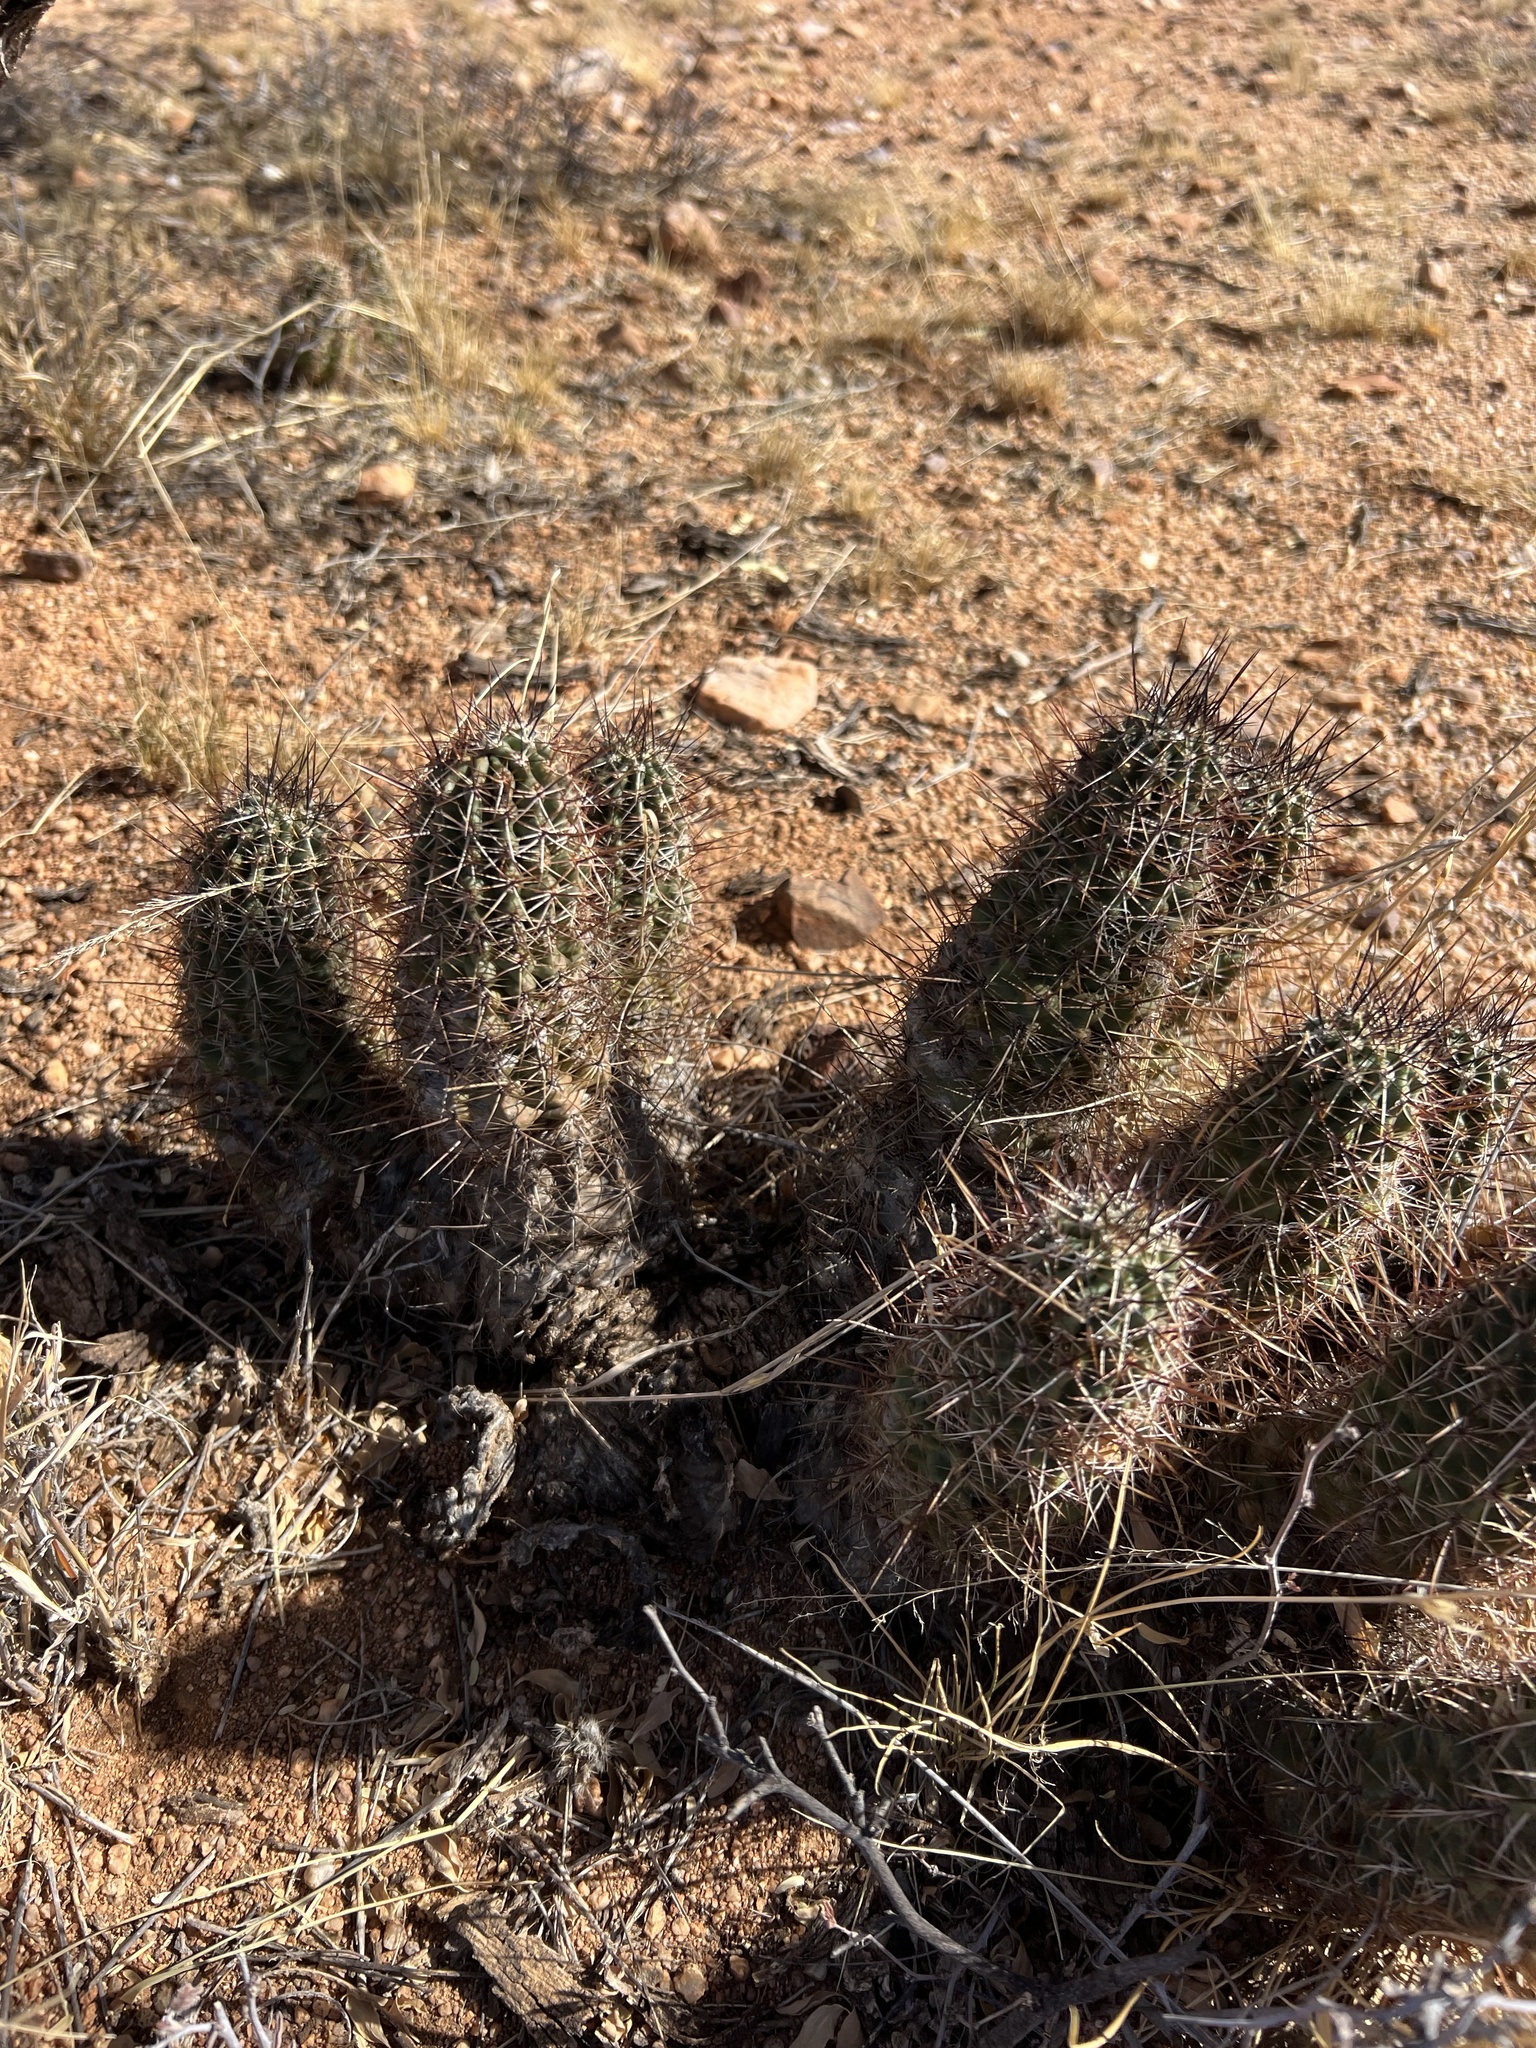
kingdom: Plantae
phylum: Tracheophyta
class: Magnoliopsida
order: Caryophyllales
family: Cactaceae
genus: Echinocereus
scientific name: Echinocereus fasciculatus
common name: Bundle hedgehog
